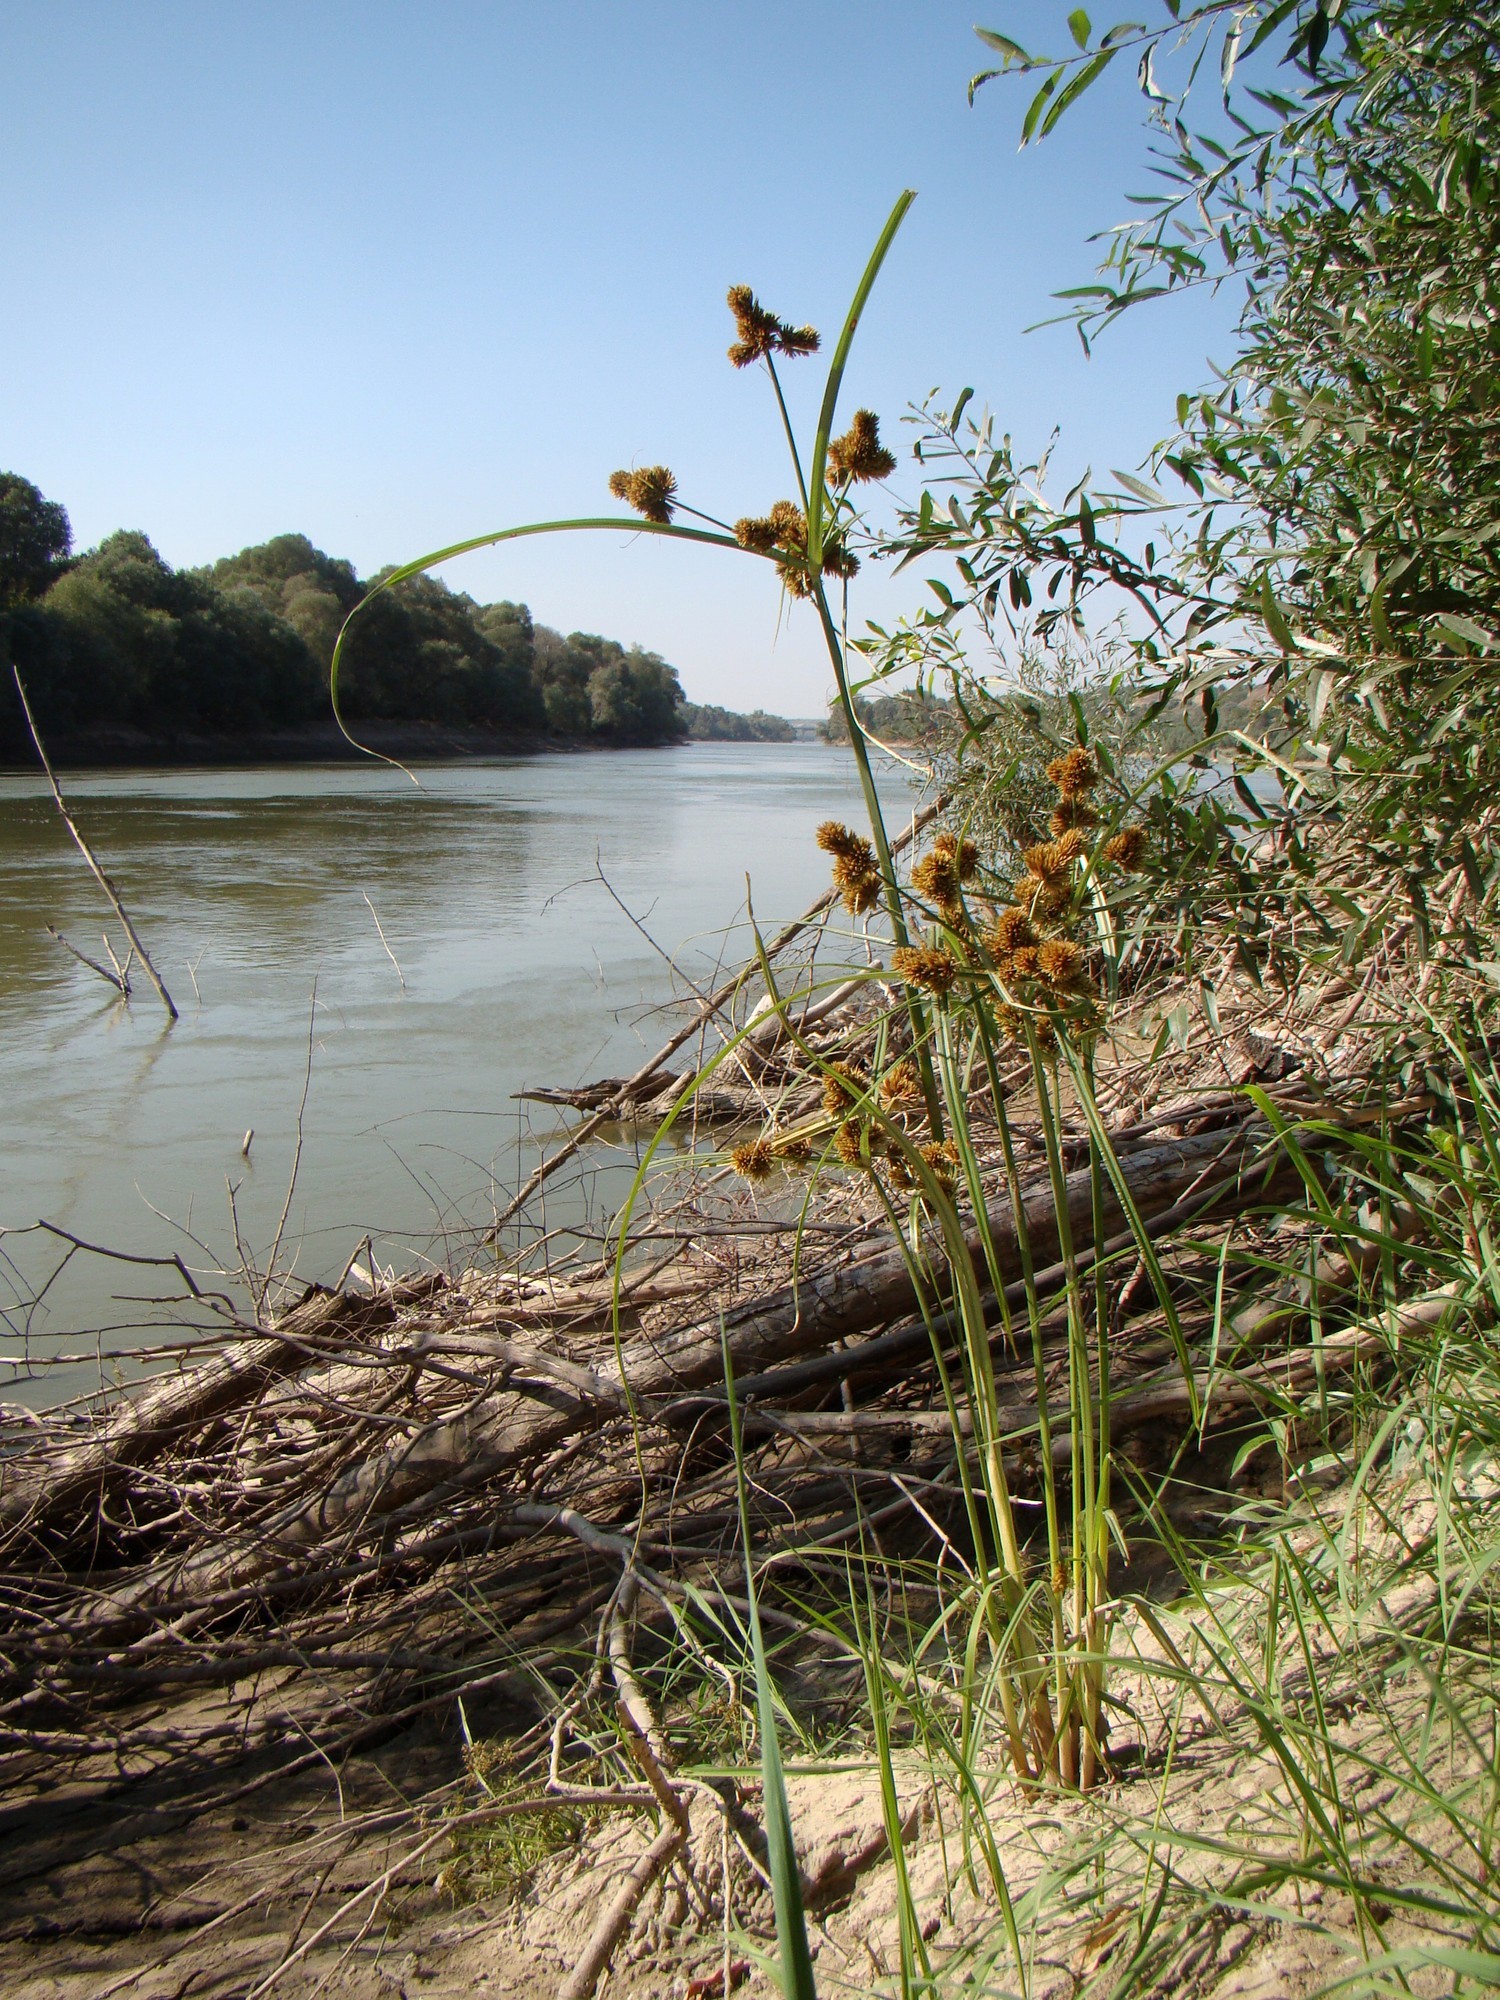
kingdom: Plantae
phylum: Tracheophyta
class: Liliopsida
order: Poales
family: Cyperaceae
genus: Cyperus
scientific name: Cyperus glomeratus
